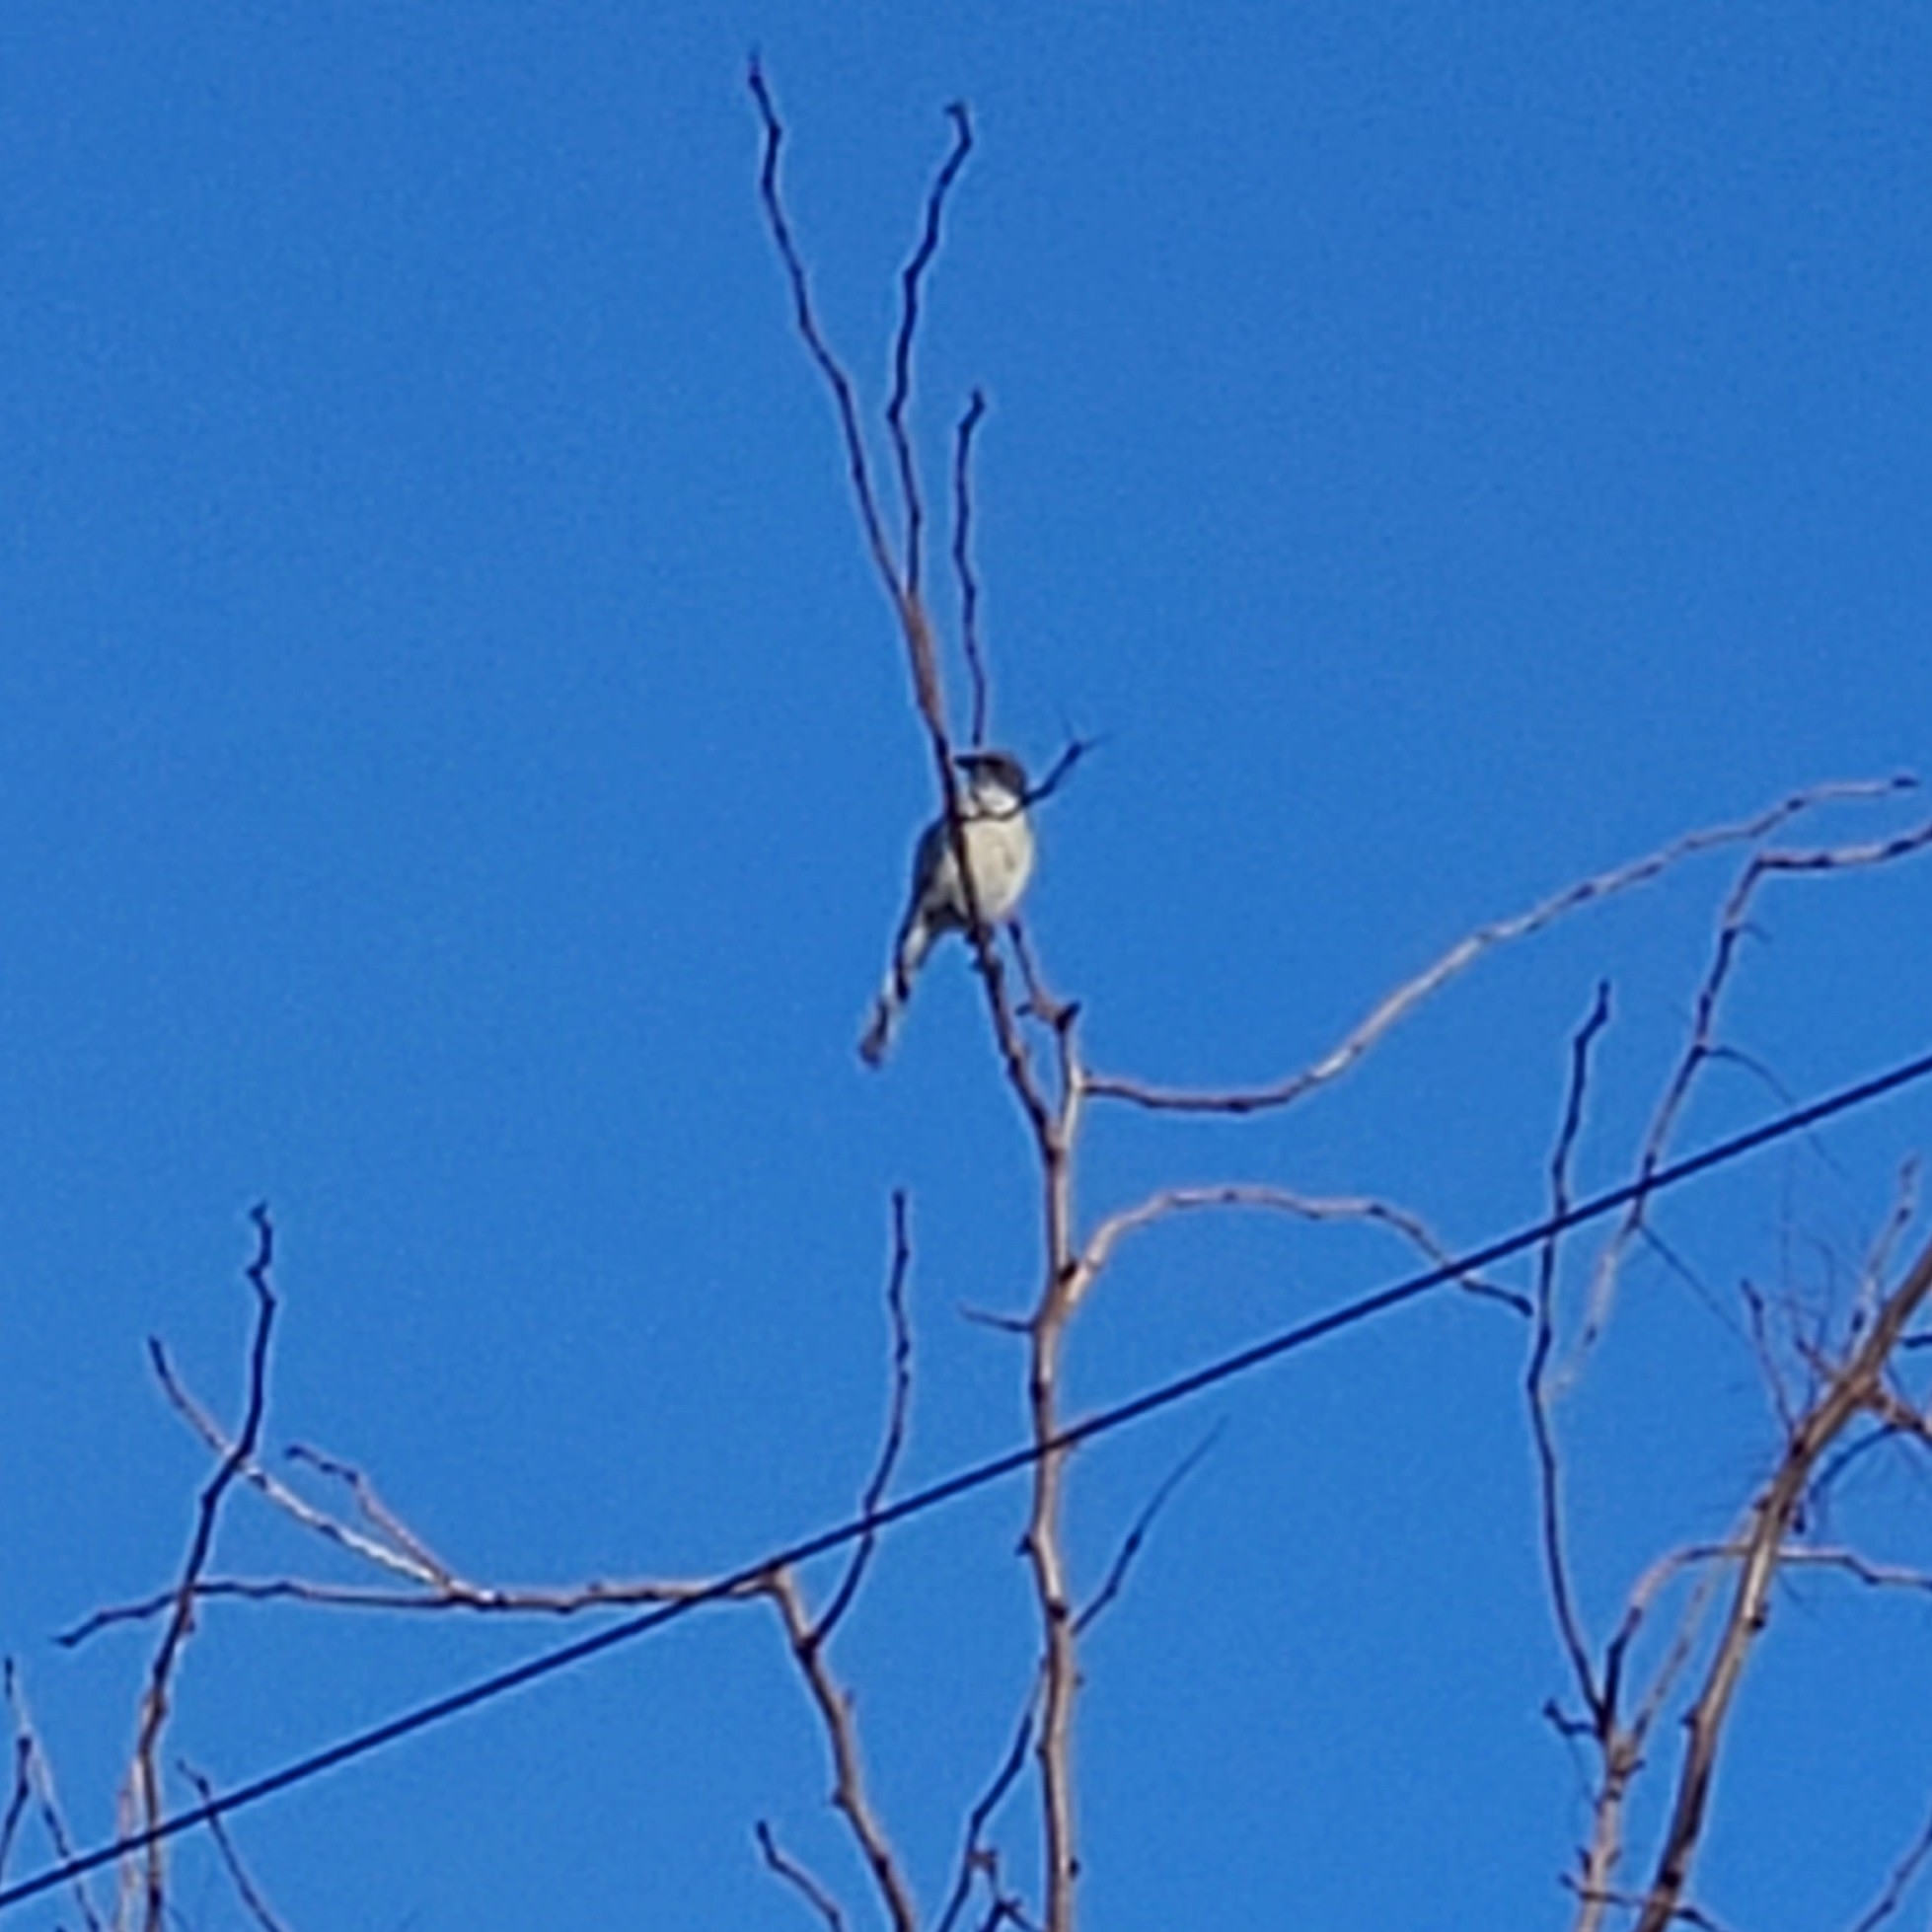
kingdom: Animalia
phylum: Chordata
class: Aves
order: Passeriformes
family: Corvidae
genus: Aphelocoma
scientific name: Aphelocoma californica
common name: California scrub-jay
